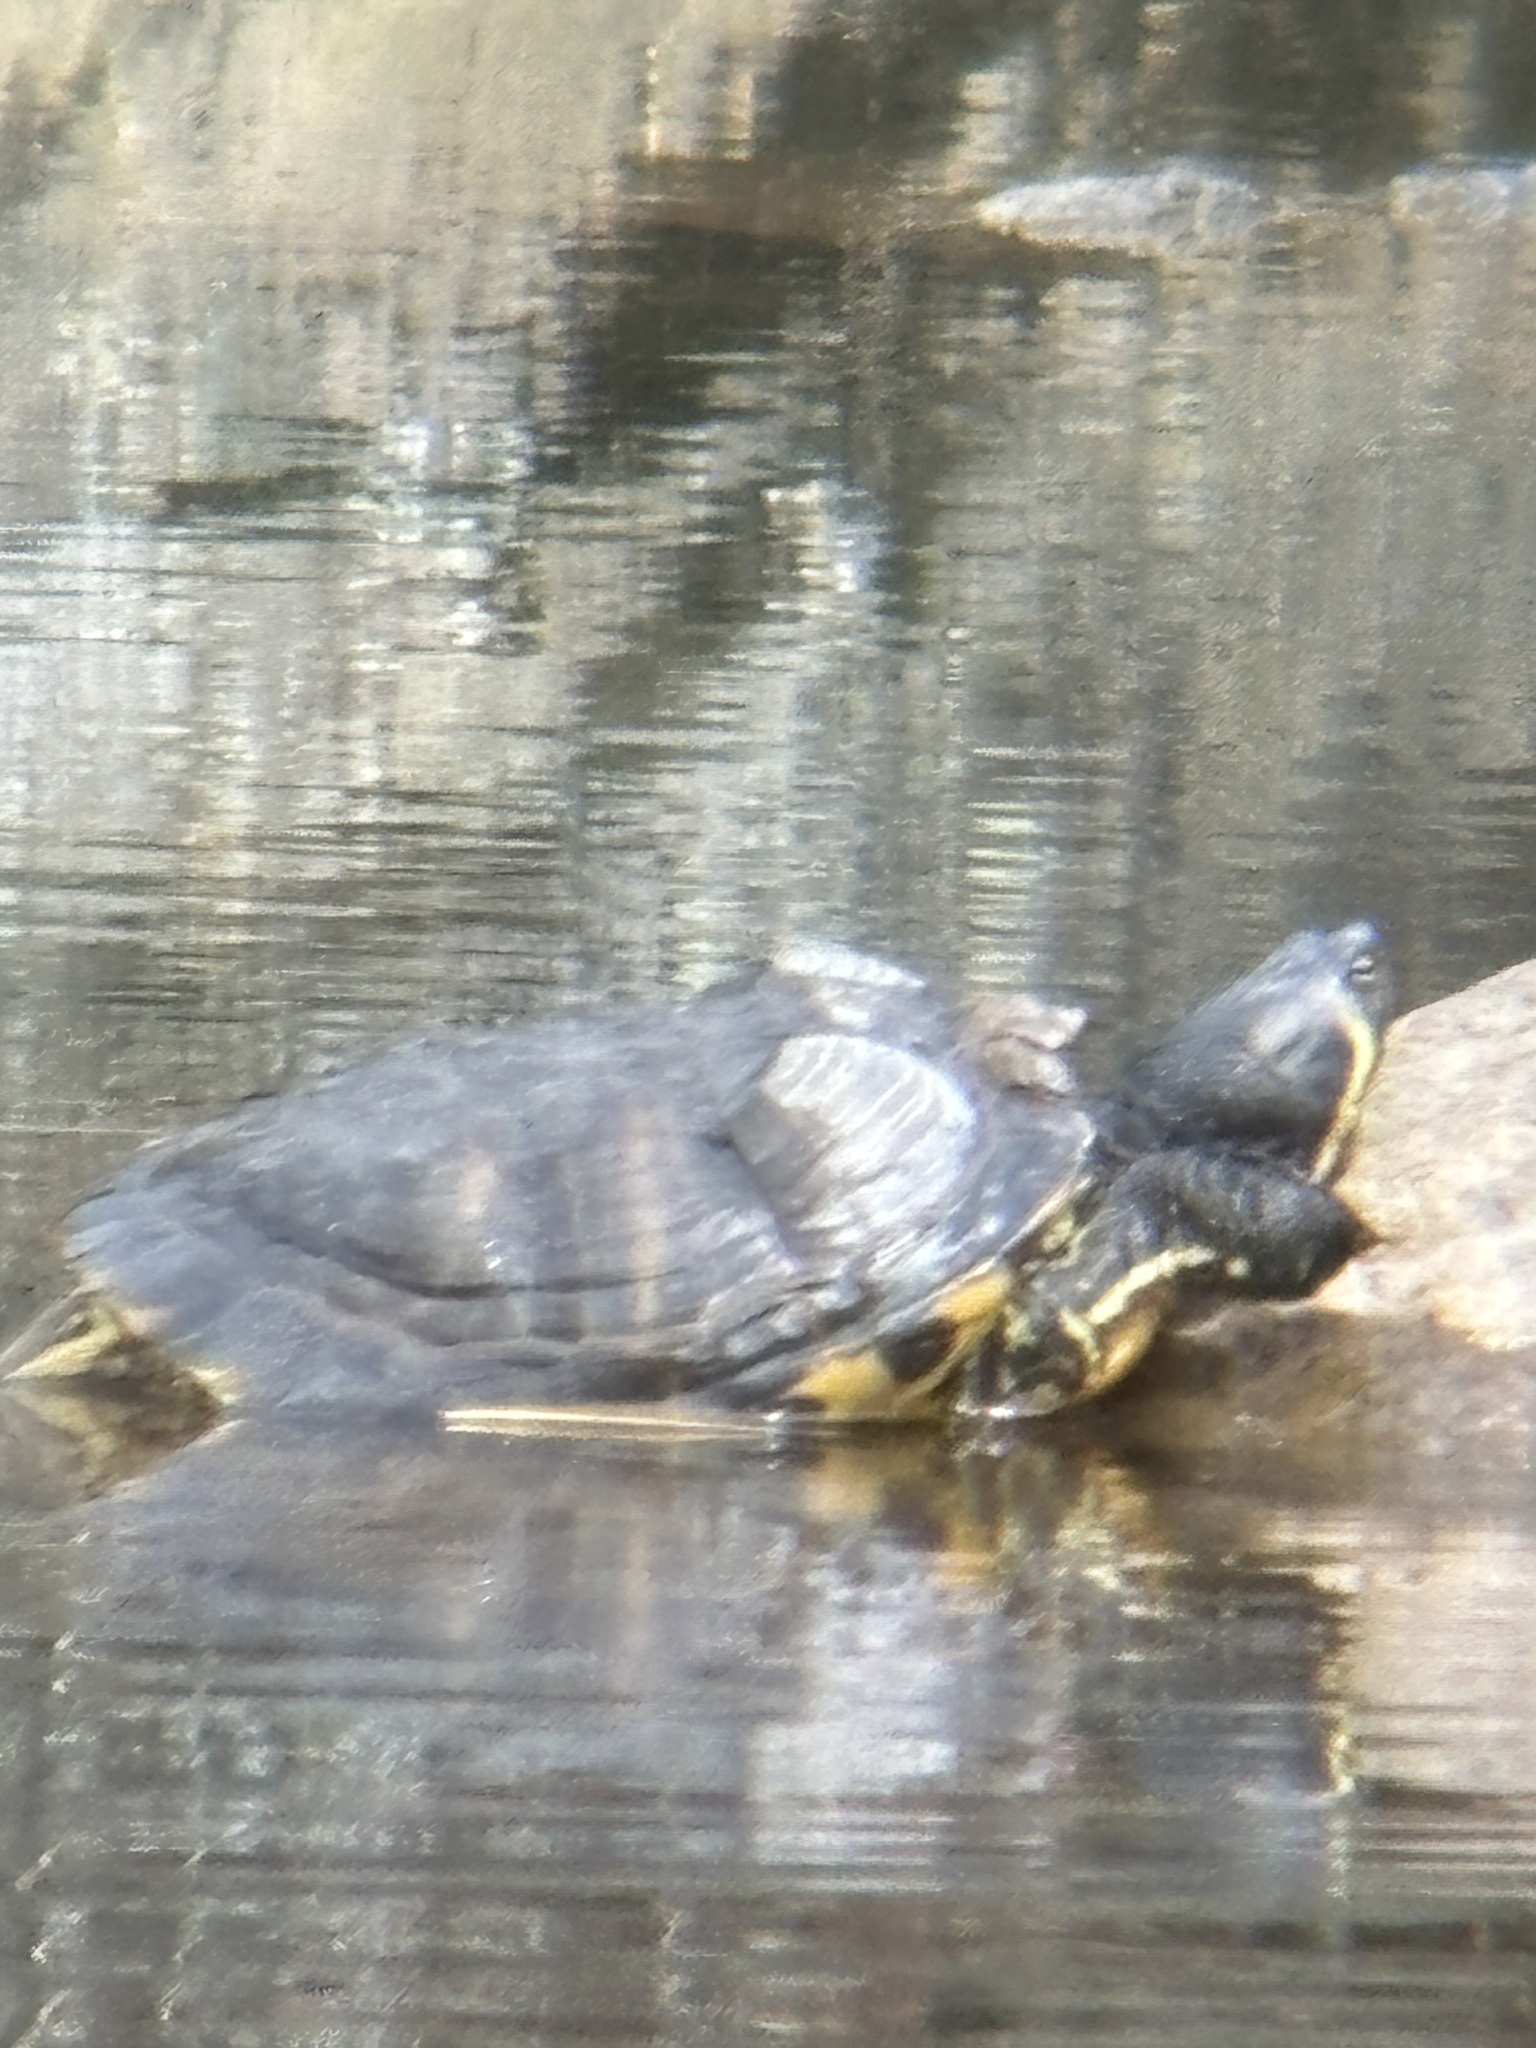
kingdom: Animalia
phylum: Chordata
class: Testudines
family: Emydidae
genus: Trachemys
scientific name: Trachemys scripta
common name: Slider
